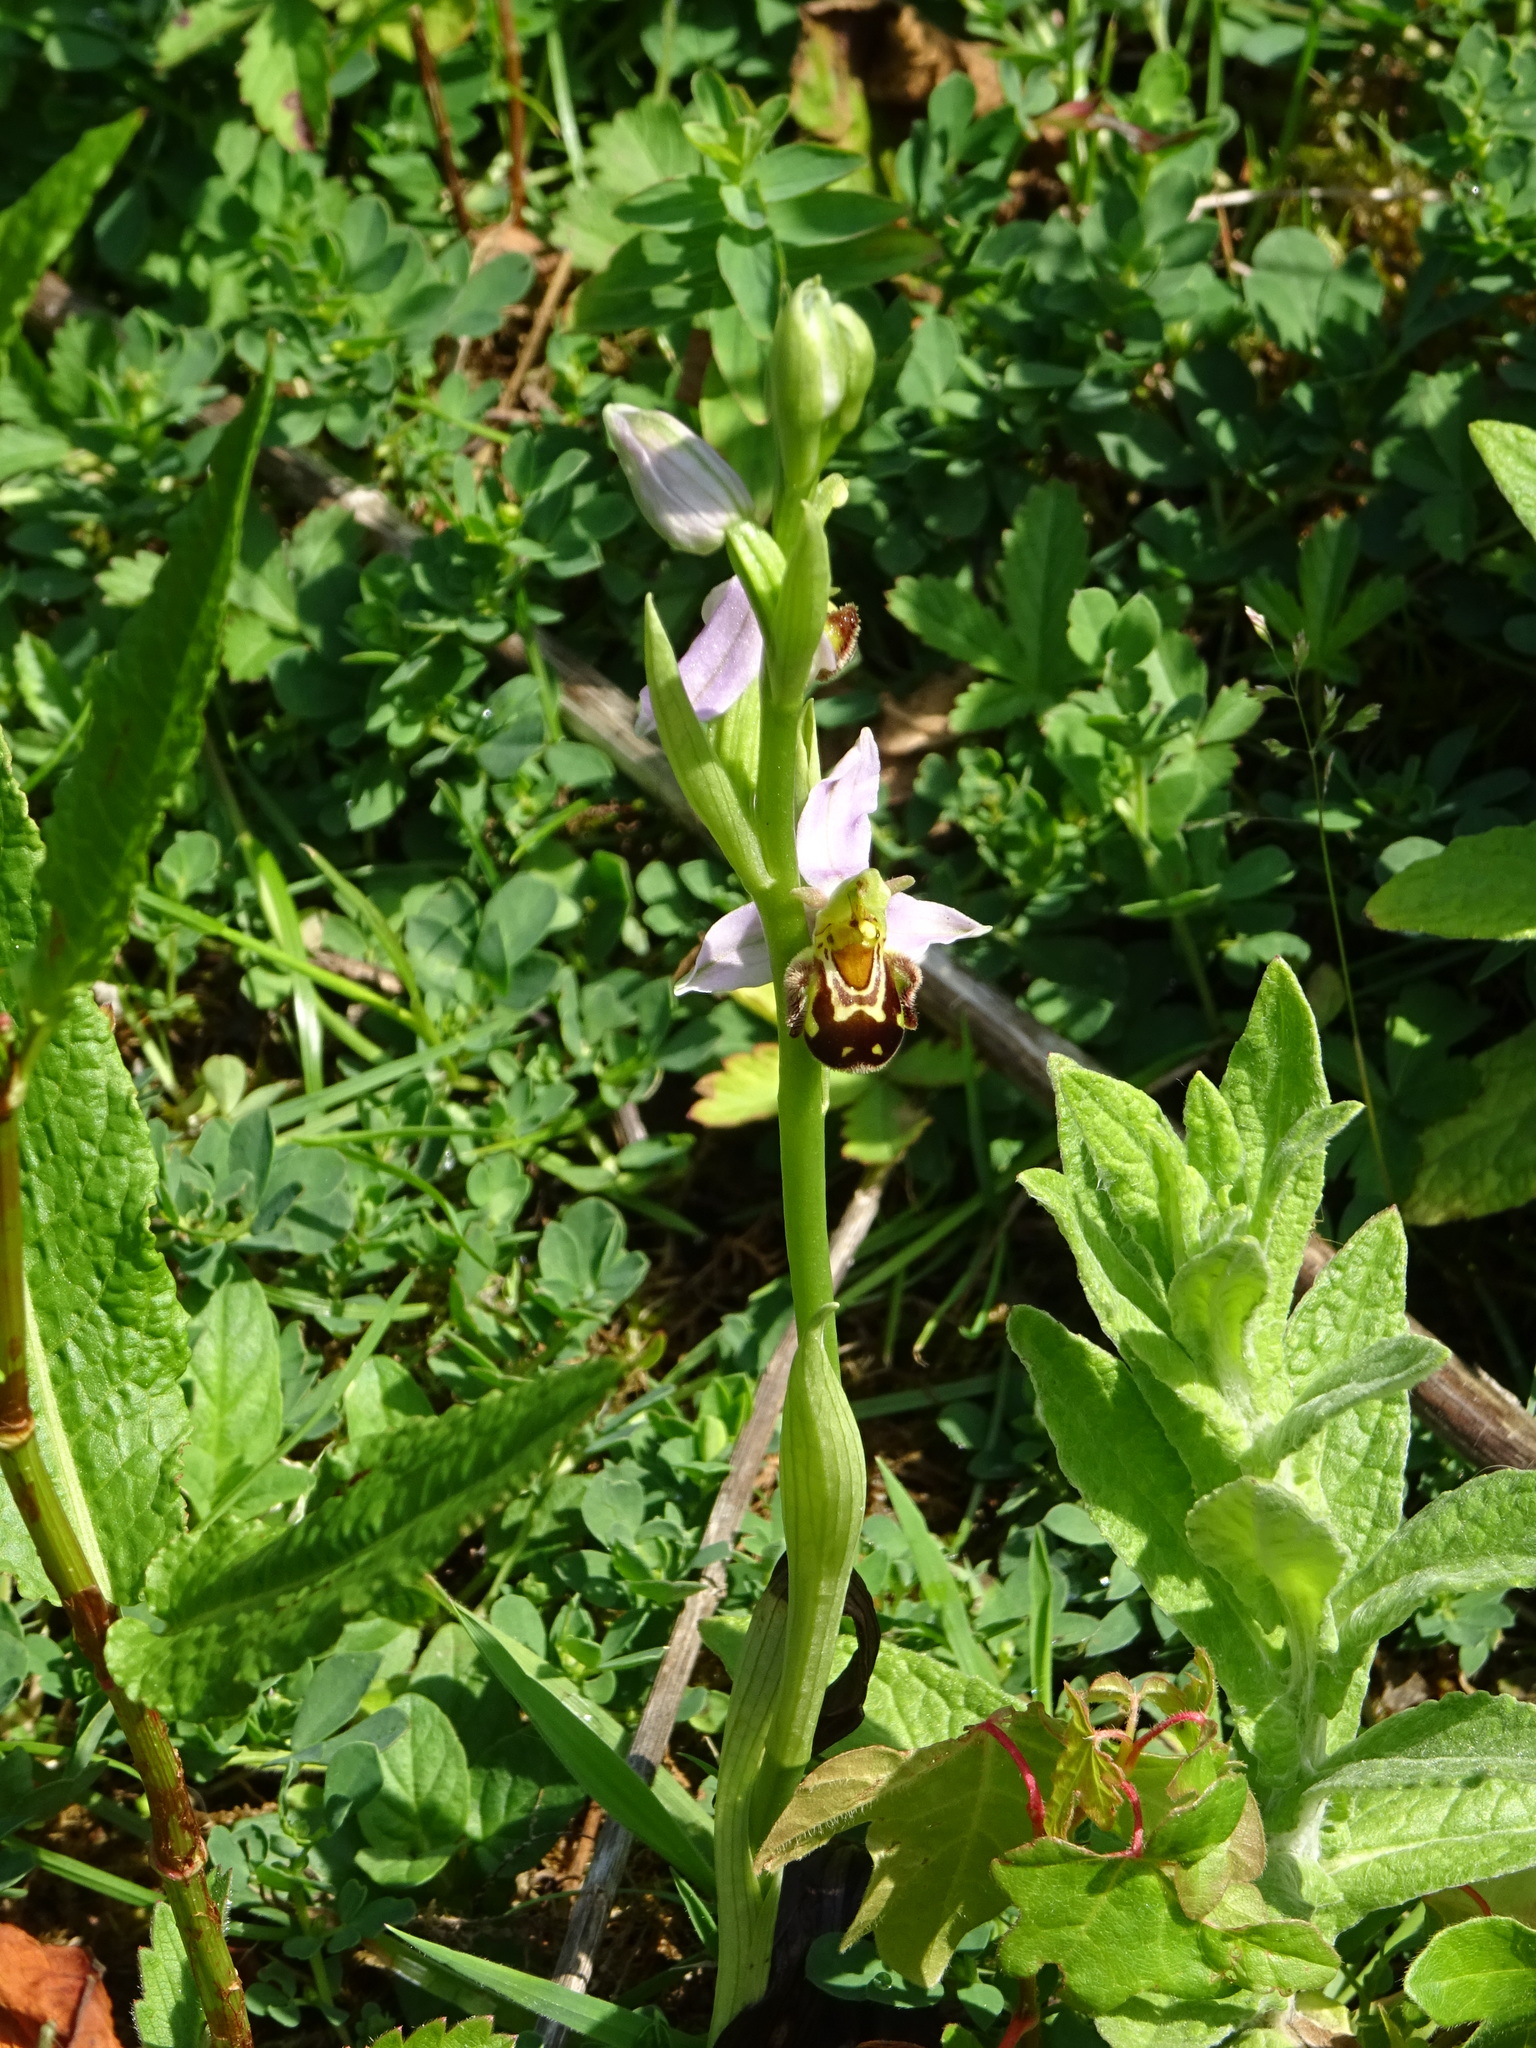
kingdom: Plantae
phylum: Tracheophyta
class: Liliopsida
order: Asparagales
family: Orchidaceae
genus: Ophrys
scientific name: Ophrys apifera
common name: Bee orchid
